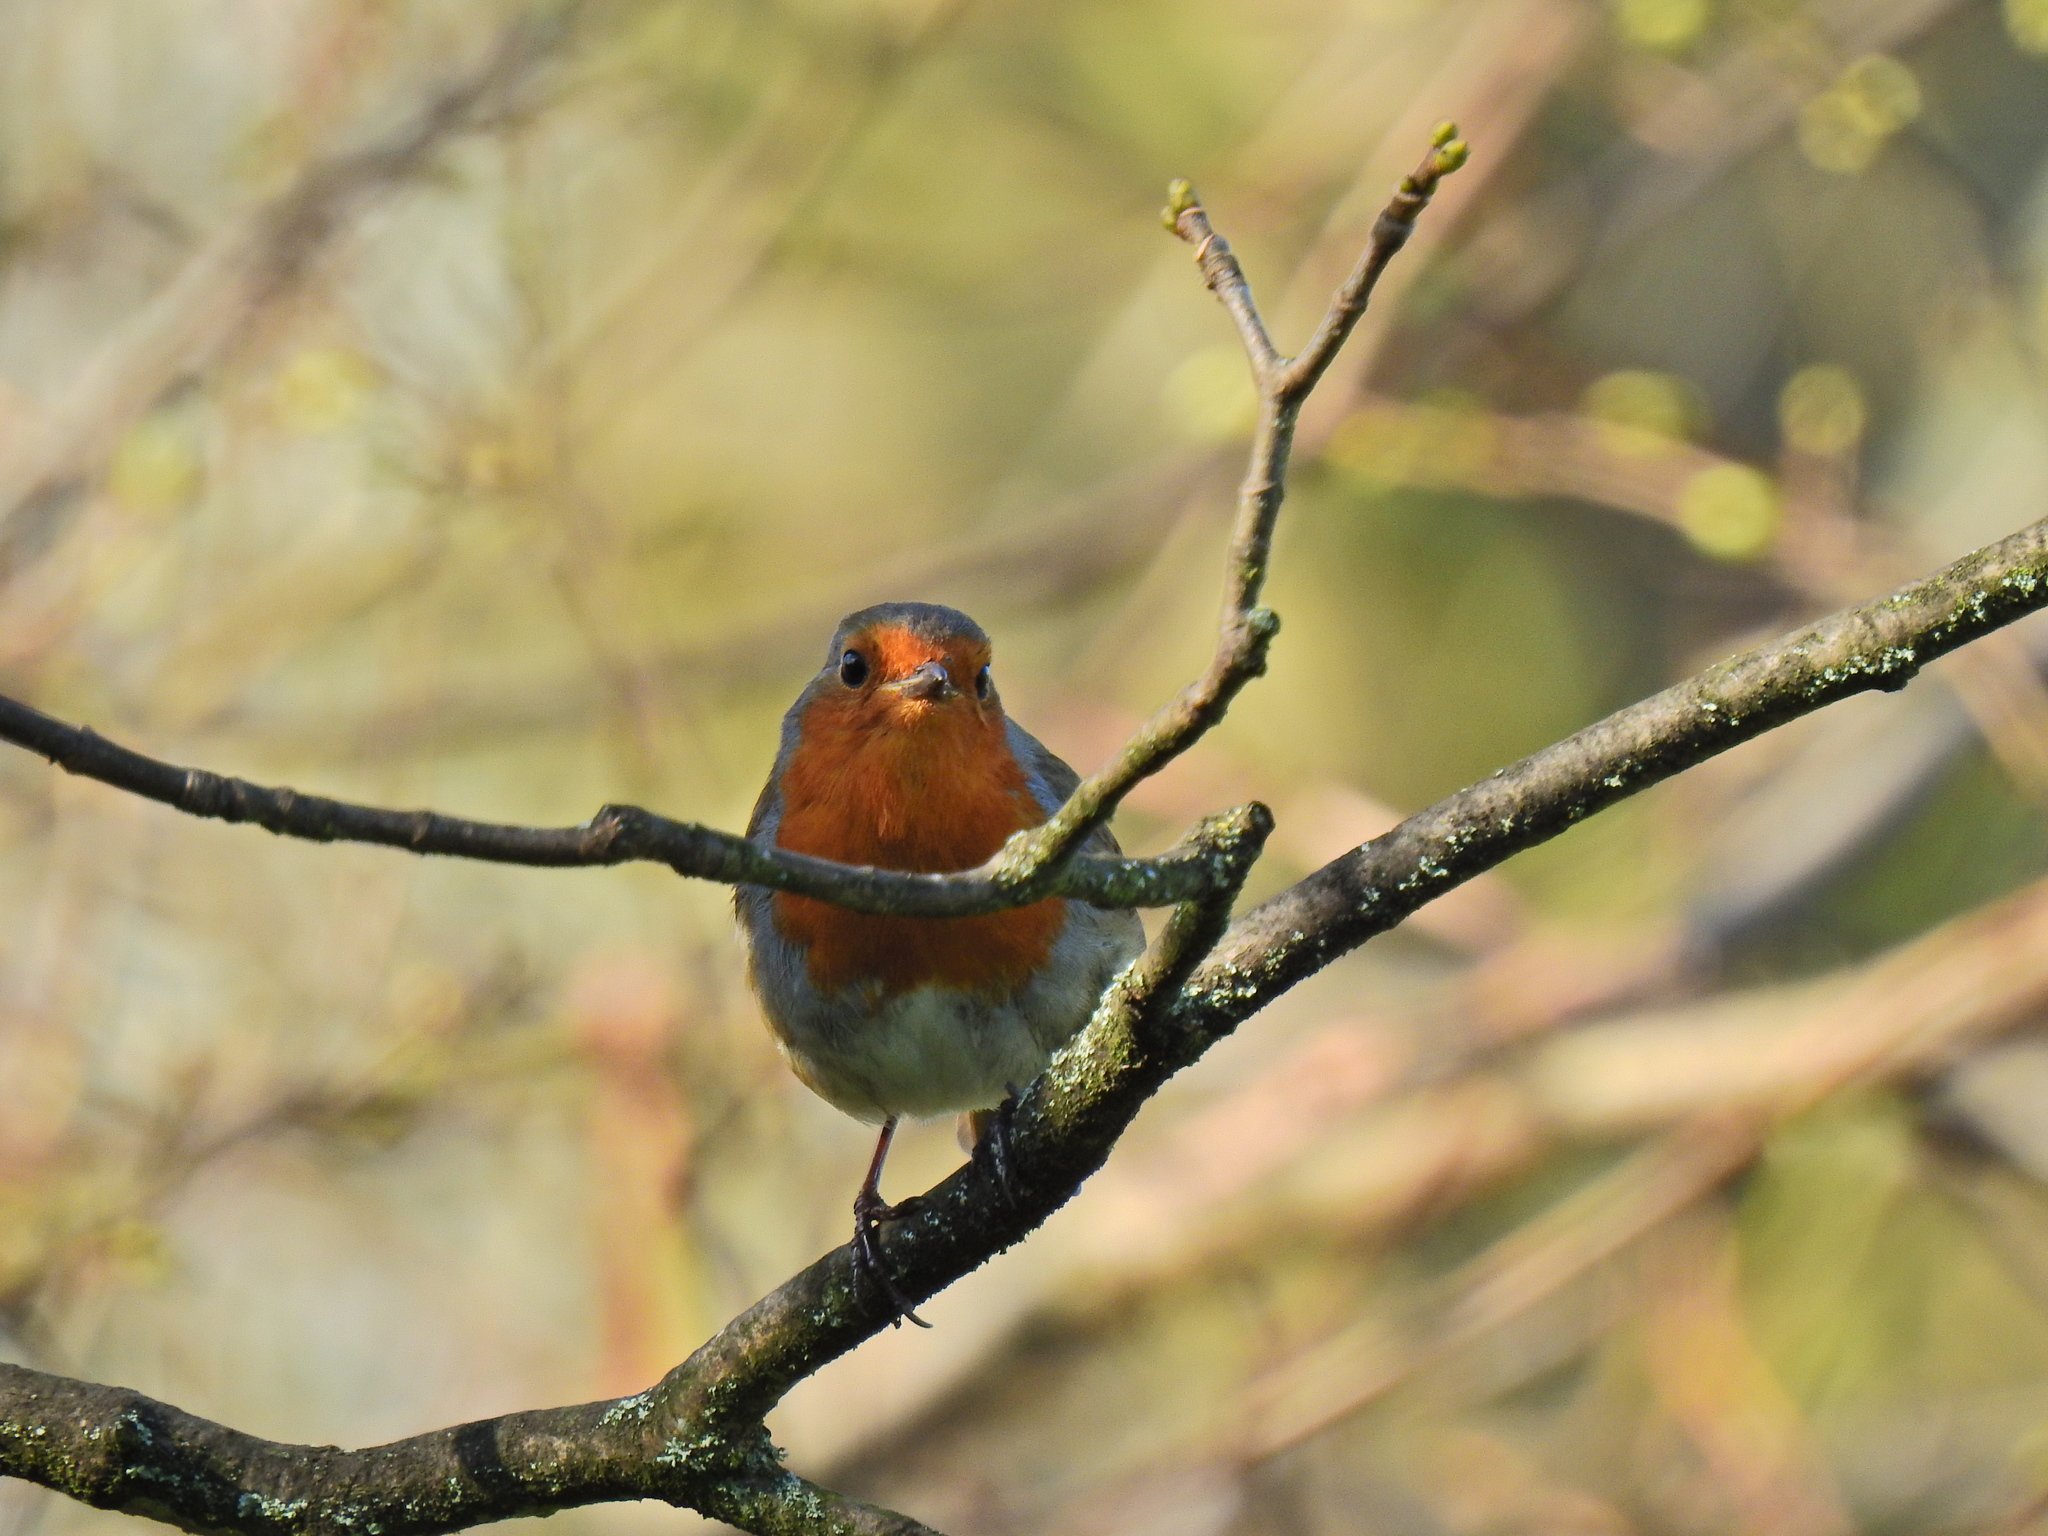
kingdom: Animalia
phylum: Chordata
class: Aves
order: Passeriformes
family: Muscicapidae
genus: Erithacus
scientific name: Erithacus rubecula
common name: European robin
